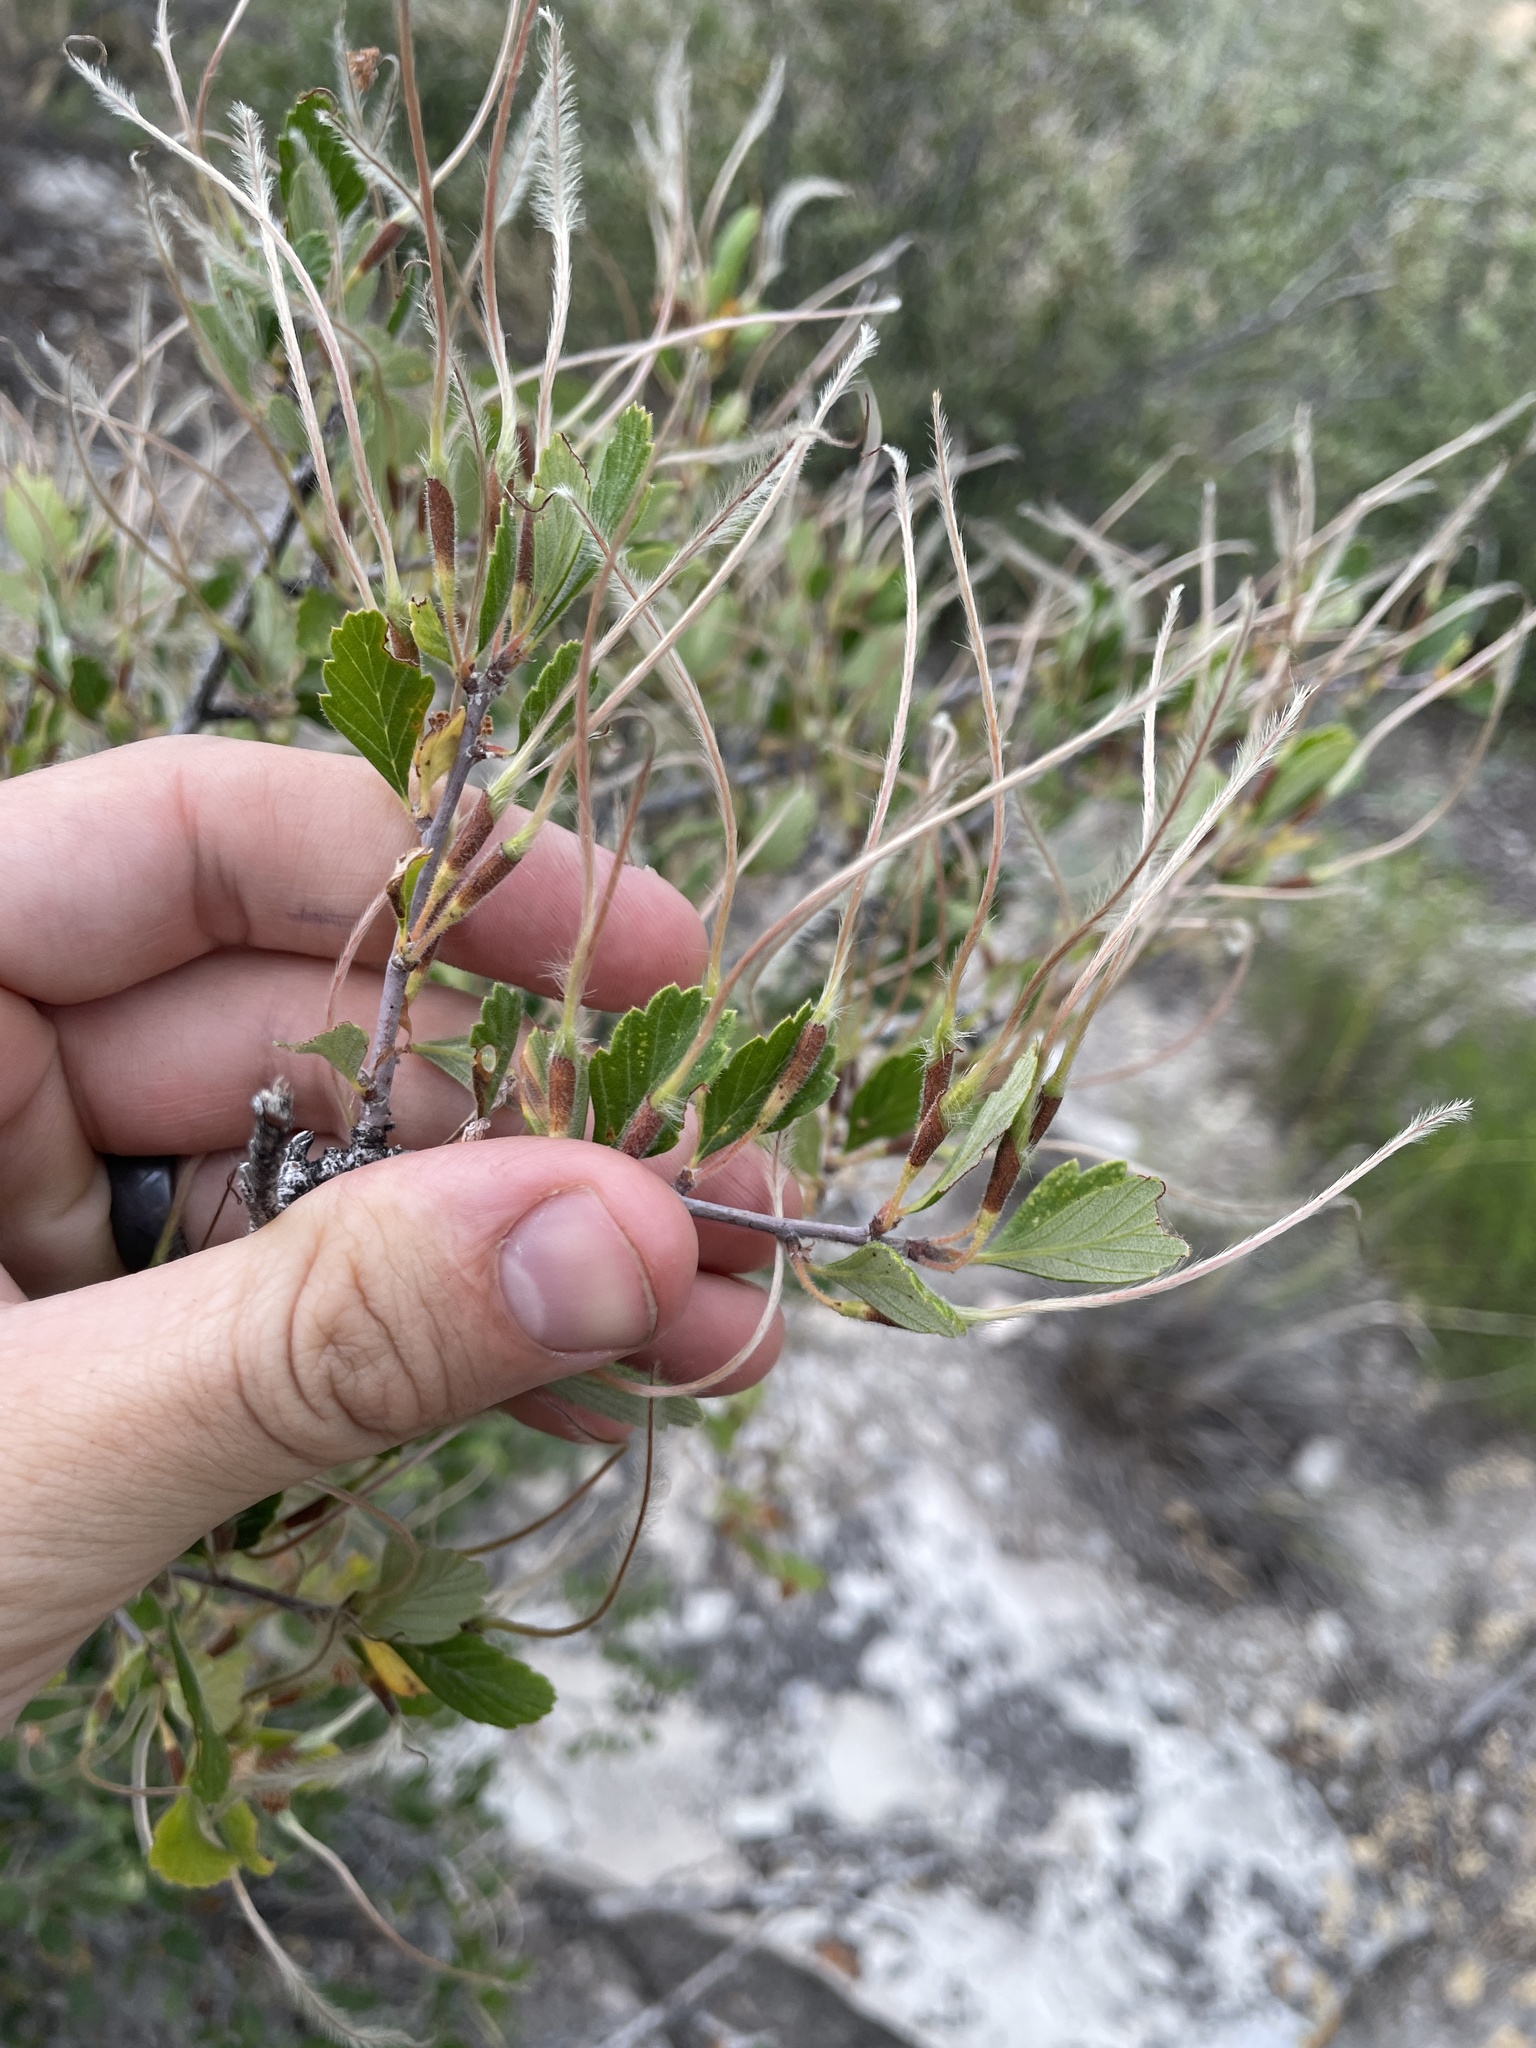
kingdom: Plantae
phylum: Tracheophyta
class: Magnoliopsida
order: Rosales
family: Rosaceae
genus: Cercocarpus
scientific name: Cercocarpus montanus
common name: Alder-leaf cercocarpus
